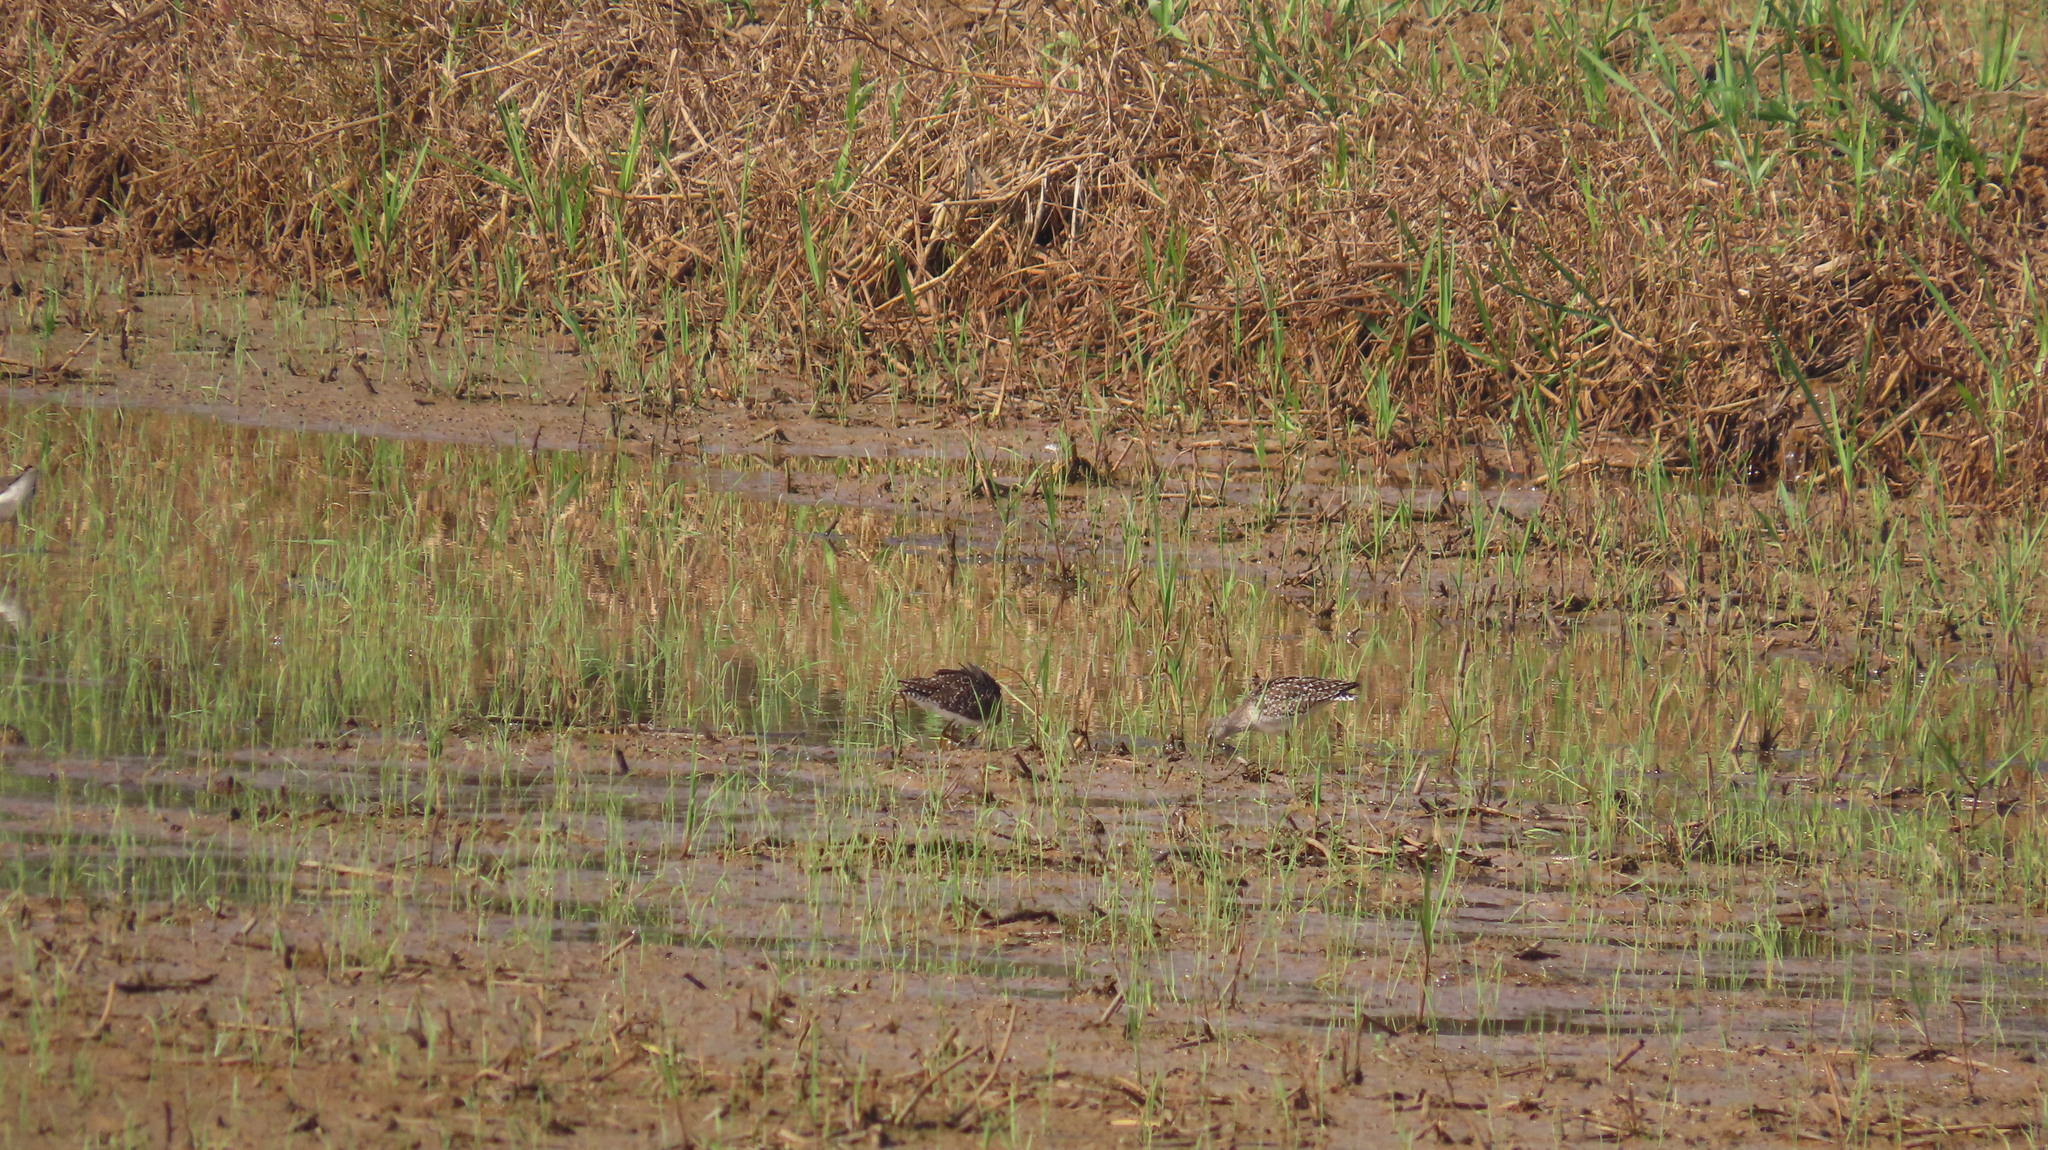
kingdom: Animalia
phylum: Chordata
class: Aves
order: Charadriiformes
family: Scolopacidae
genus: Tringa
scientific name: Tringa glareola
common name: Wood sandpiper
